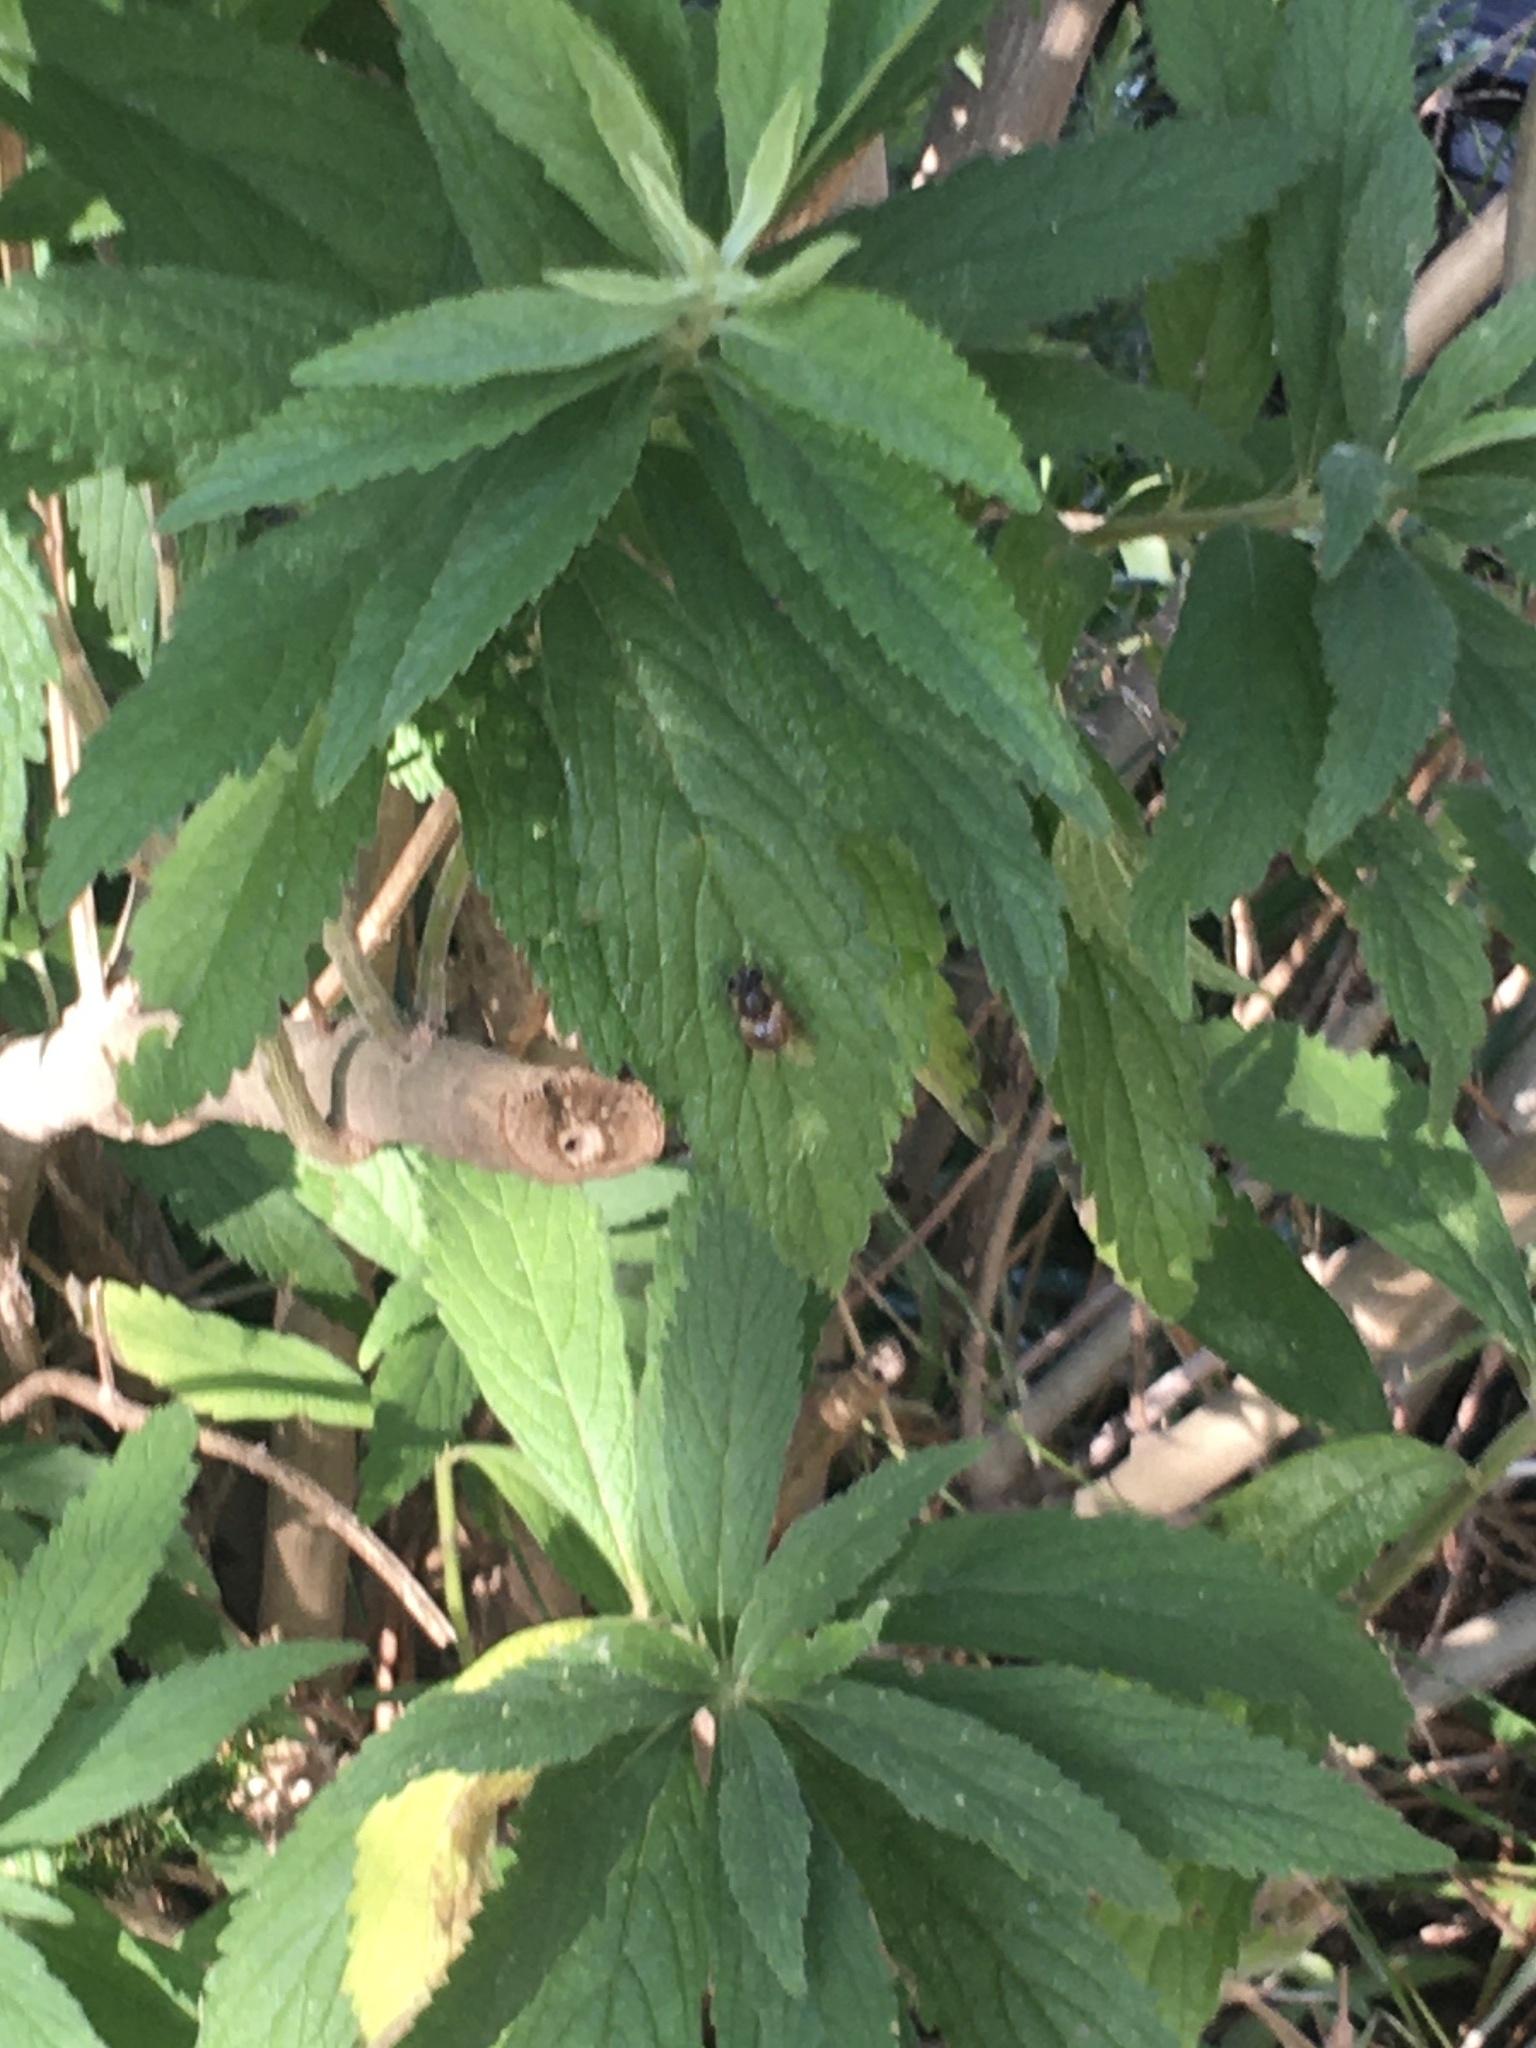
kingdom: Animalia
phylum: Arthropoda
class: Insecta
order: Diptera
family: Syrphidae
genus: Eristalis
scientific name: Eristalis tenax
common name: Drone fly
